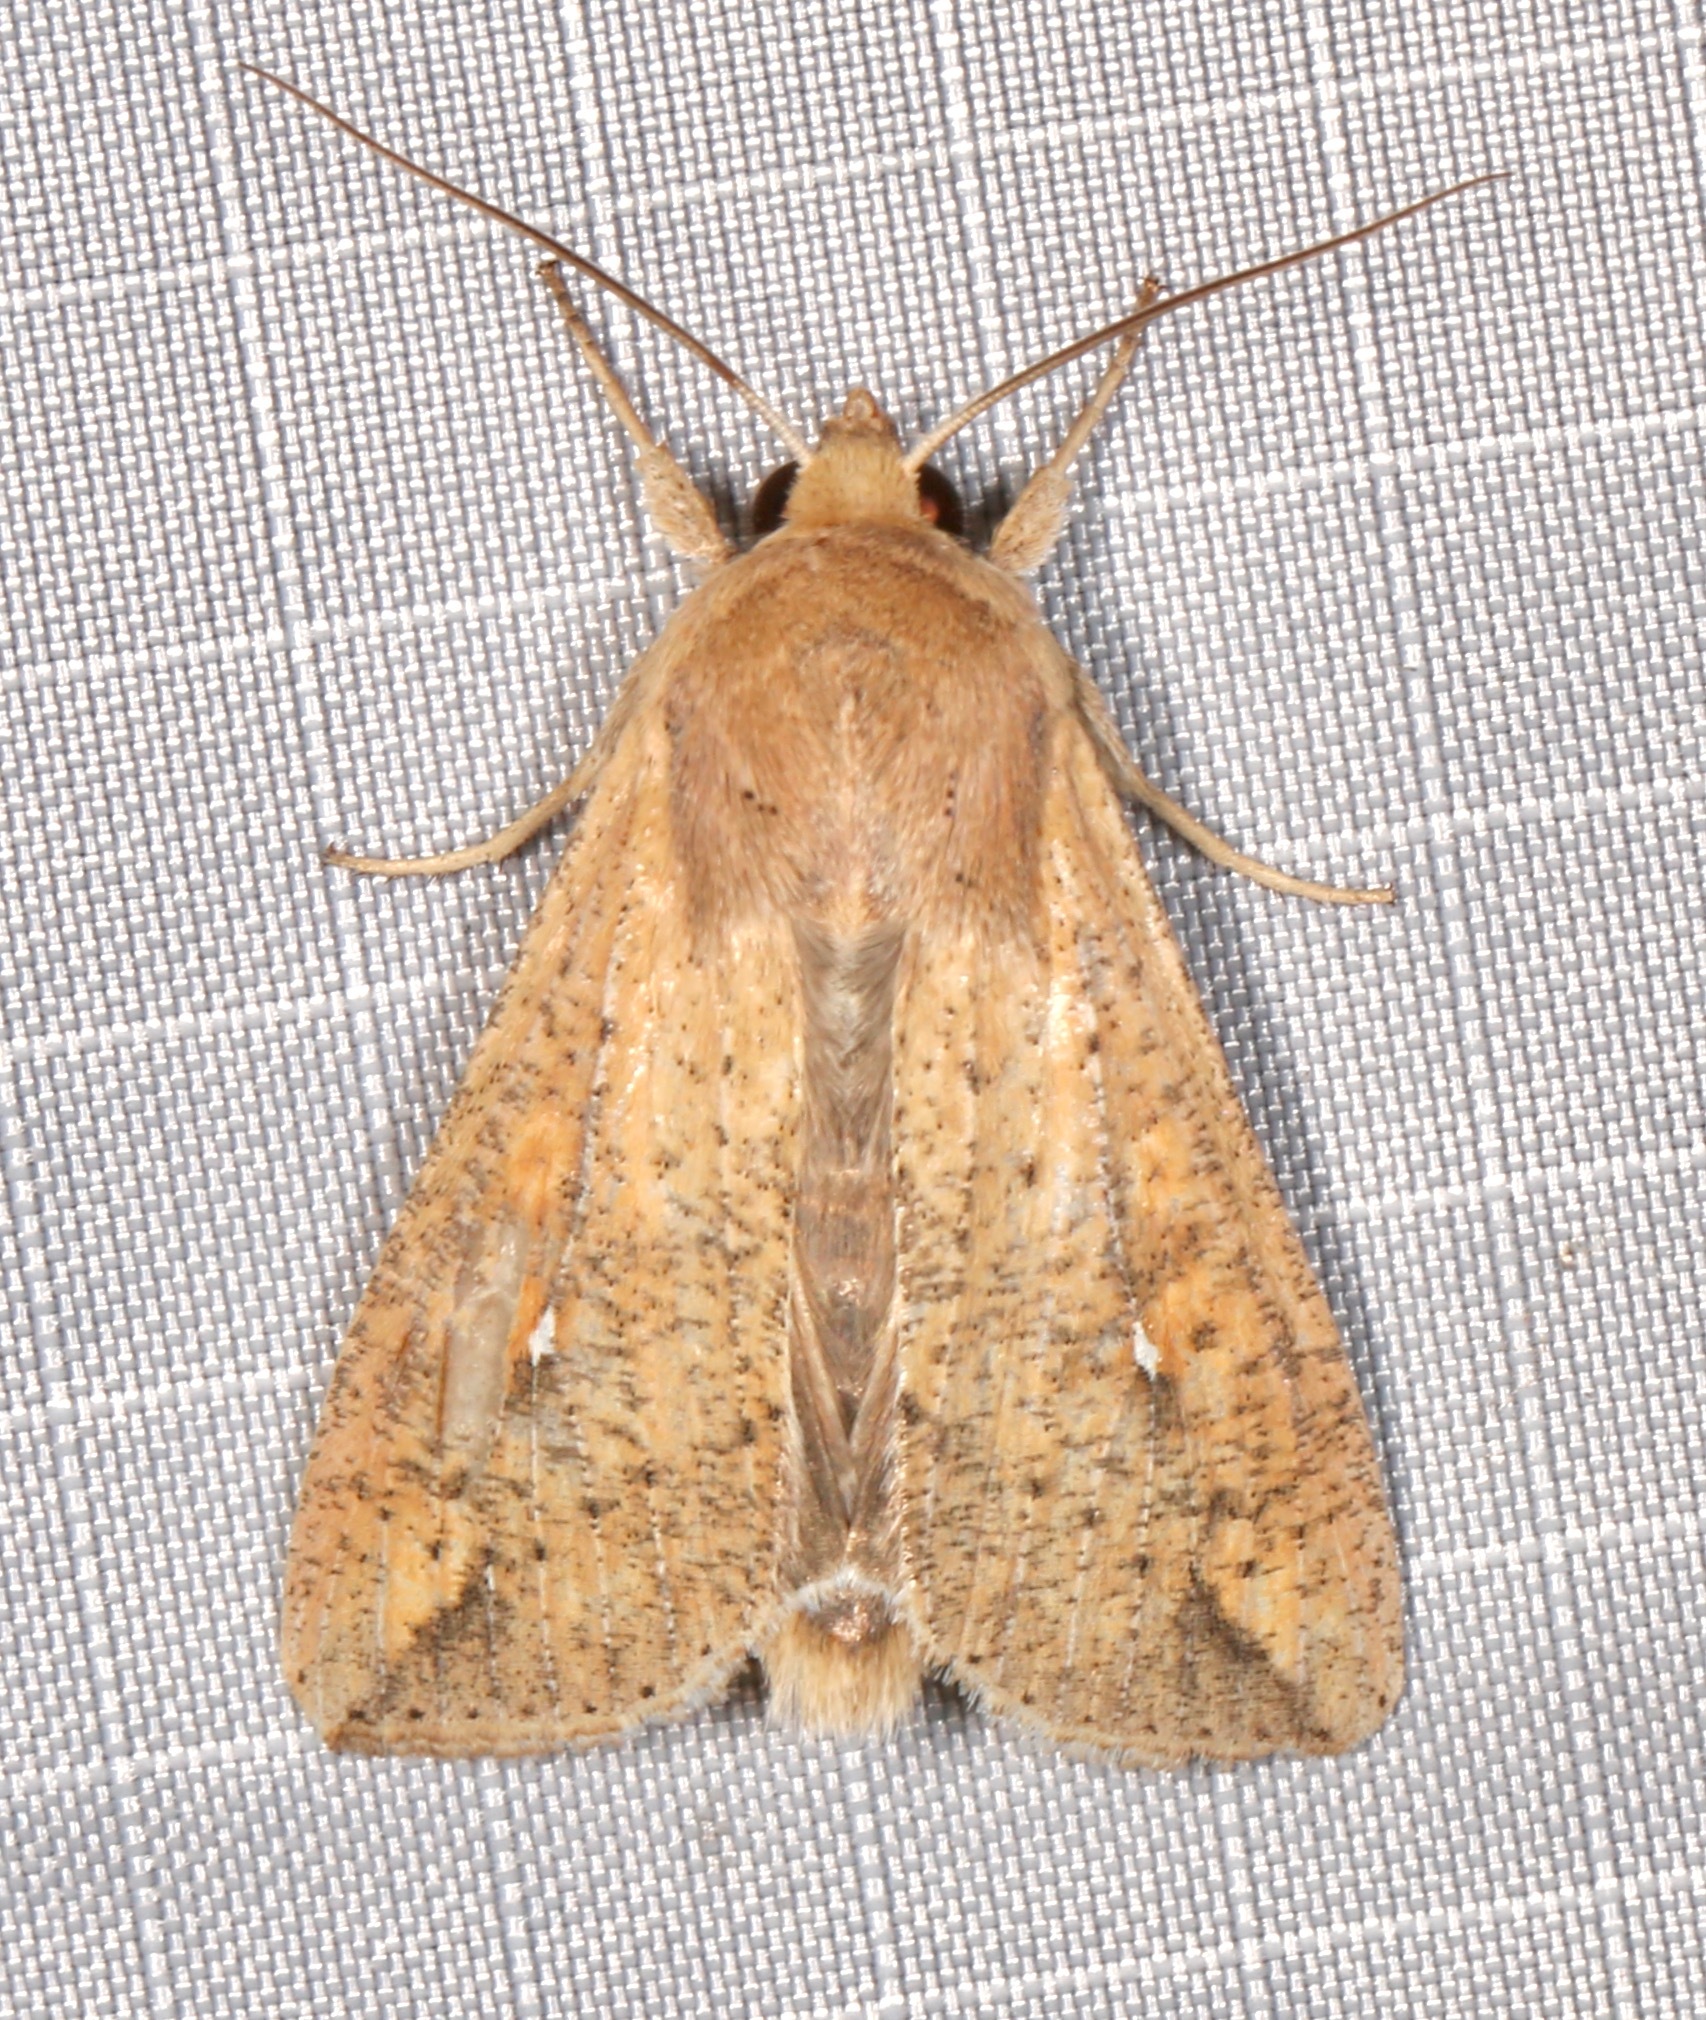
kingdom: Animalia
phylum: Arthropoda
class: Insecta
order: Lepidoptera
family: Noctuidae
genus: Mythimna
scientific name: Mythimna unipuncta
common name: White-speck
